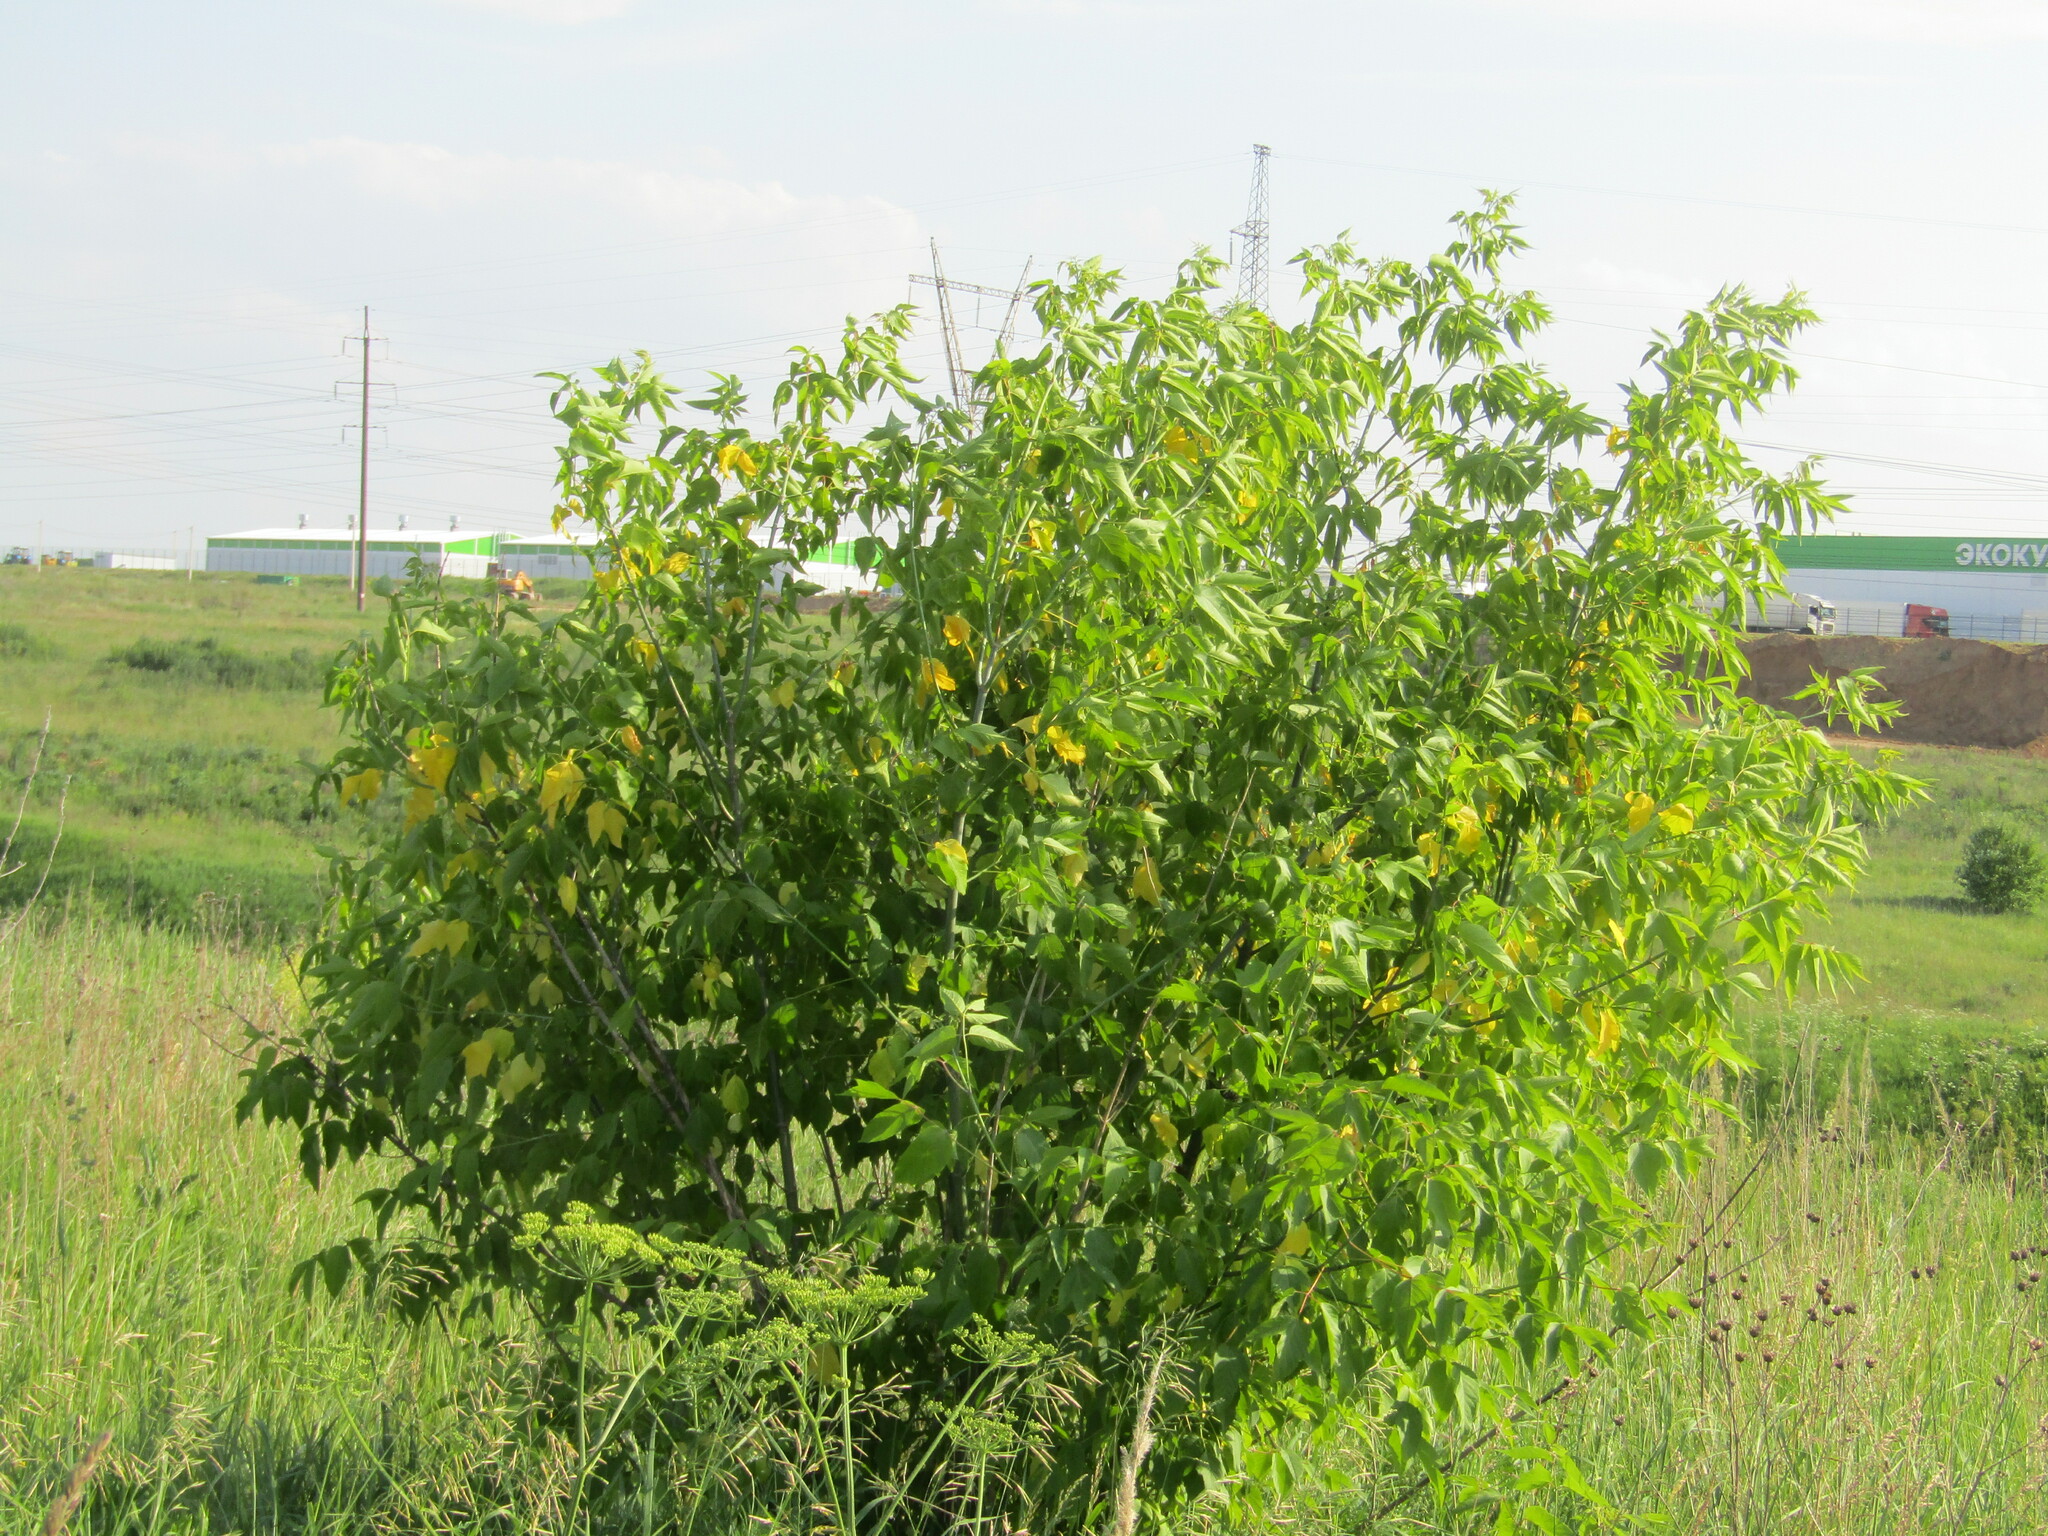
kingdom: Plantae
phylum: Tracheophyta
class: Magnoliopsida
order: Sapindales
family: Sapindaceae
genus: Acer
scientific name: Acer negundo
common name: Ashleaf maple
